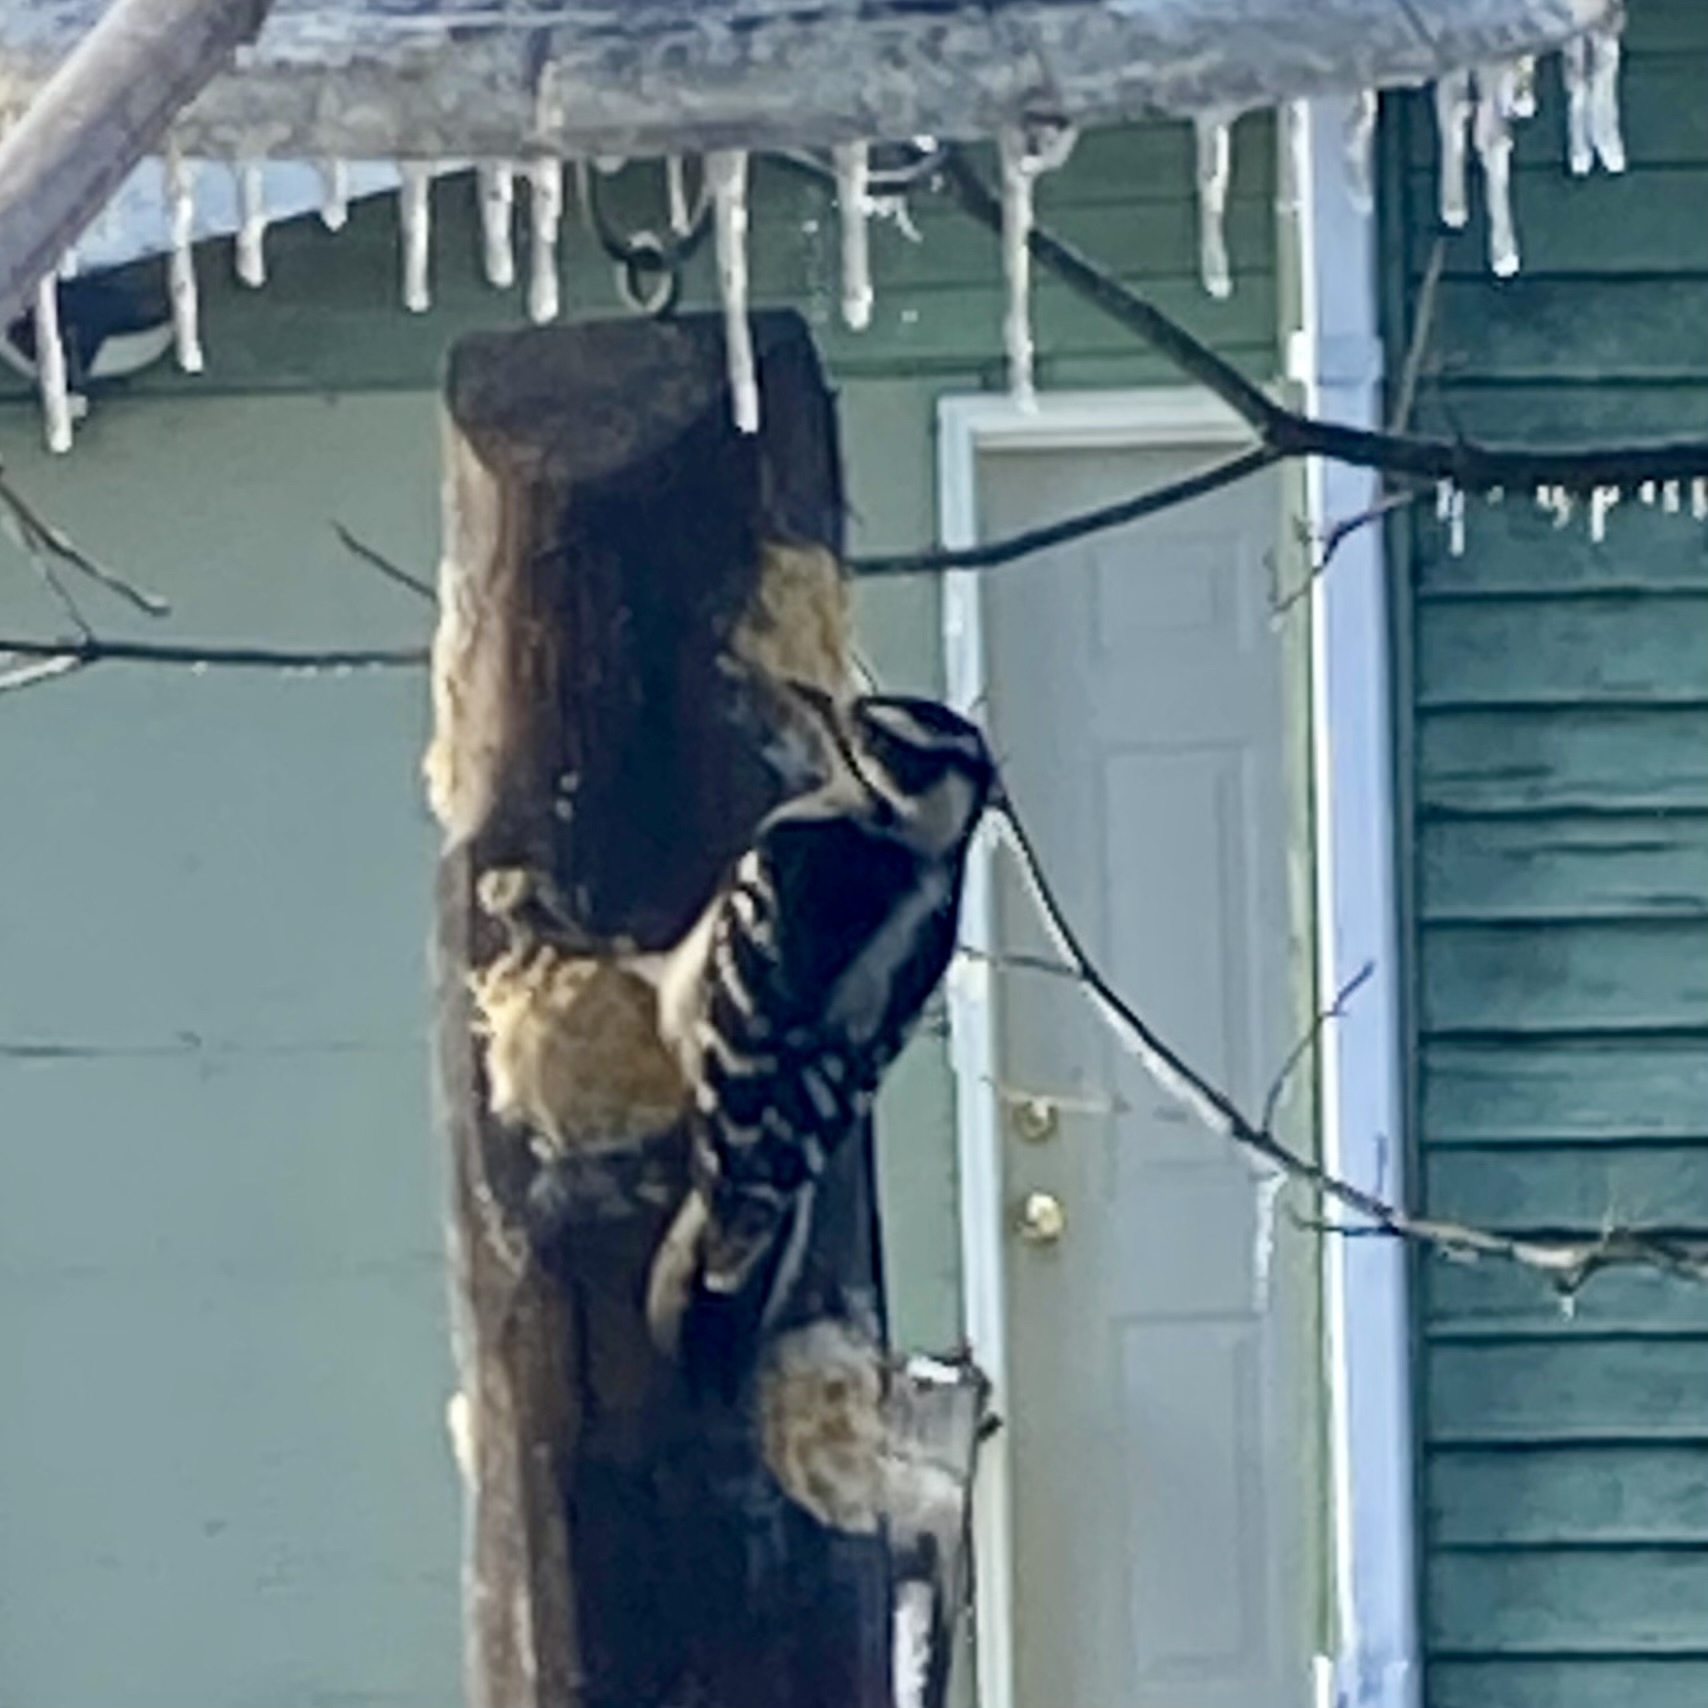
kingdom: Animalia
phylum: Chordata
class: Aves
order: Piciformes
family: Picidae
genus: Dryobates
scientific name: Dryobates pubescens
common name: Downy woodpecker
